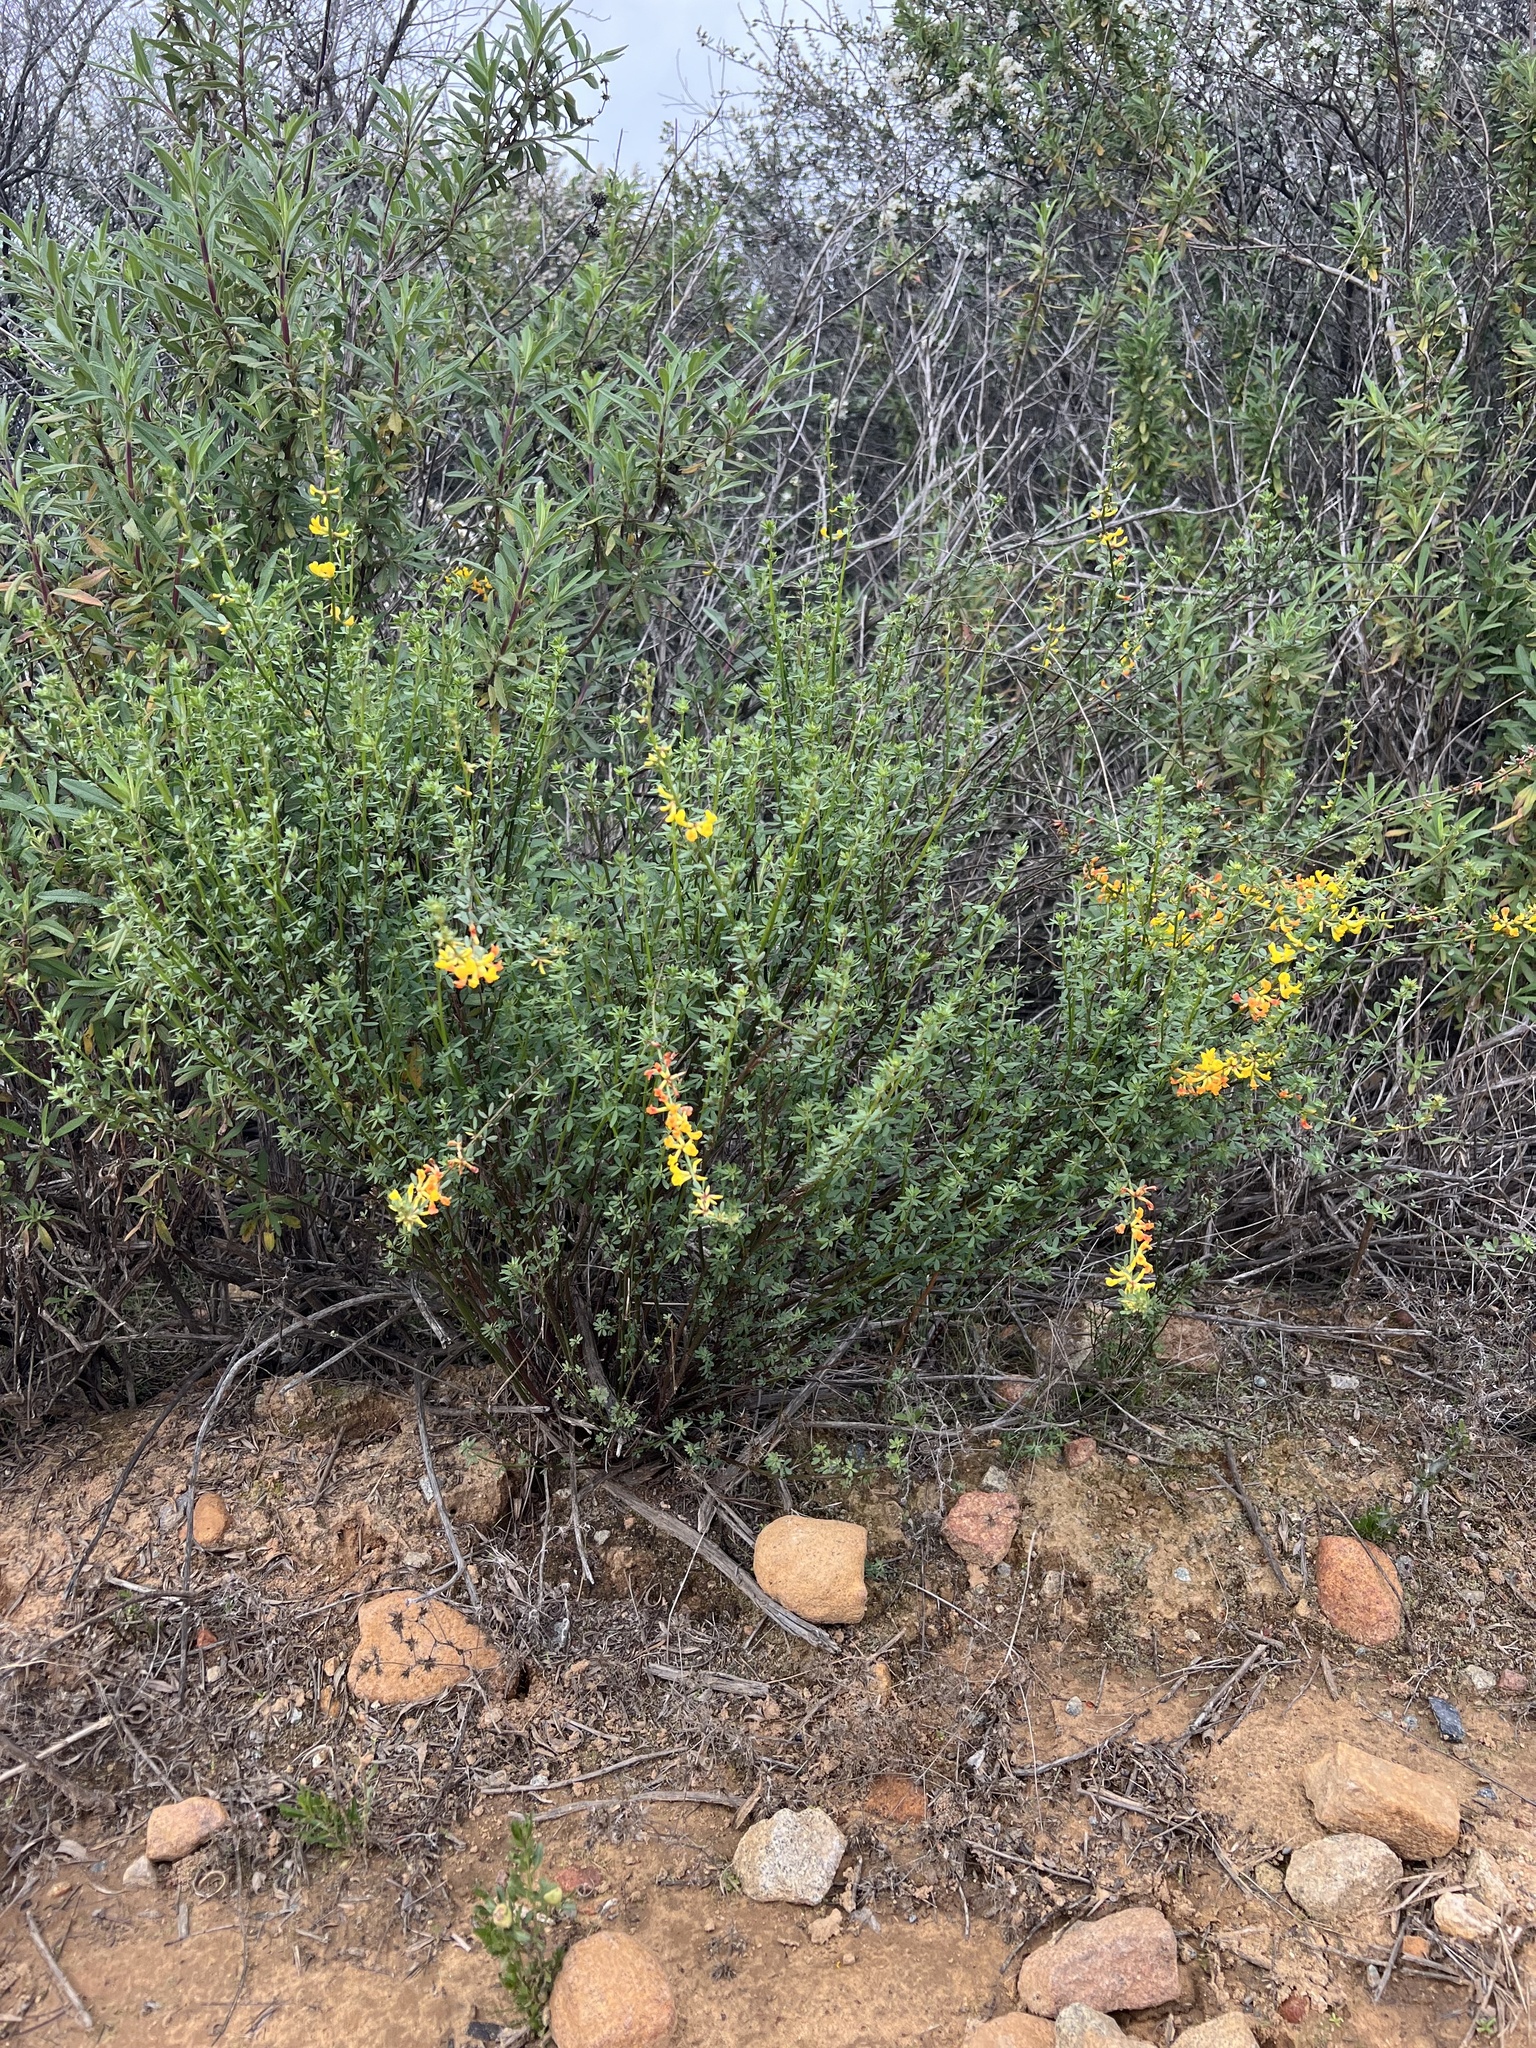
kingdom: Plantae
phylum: Tracheophyta
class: Magnoliopsida
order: Fabales
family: Fabaceae
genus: Acmispon
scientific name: Acmispon glaber
